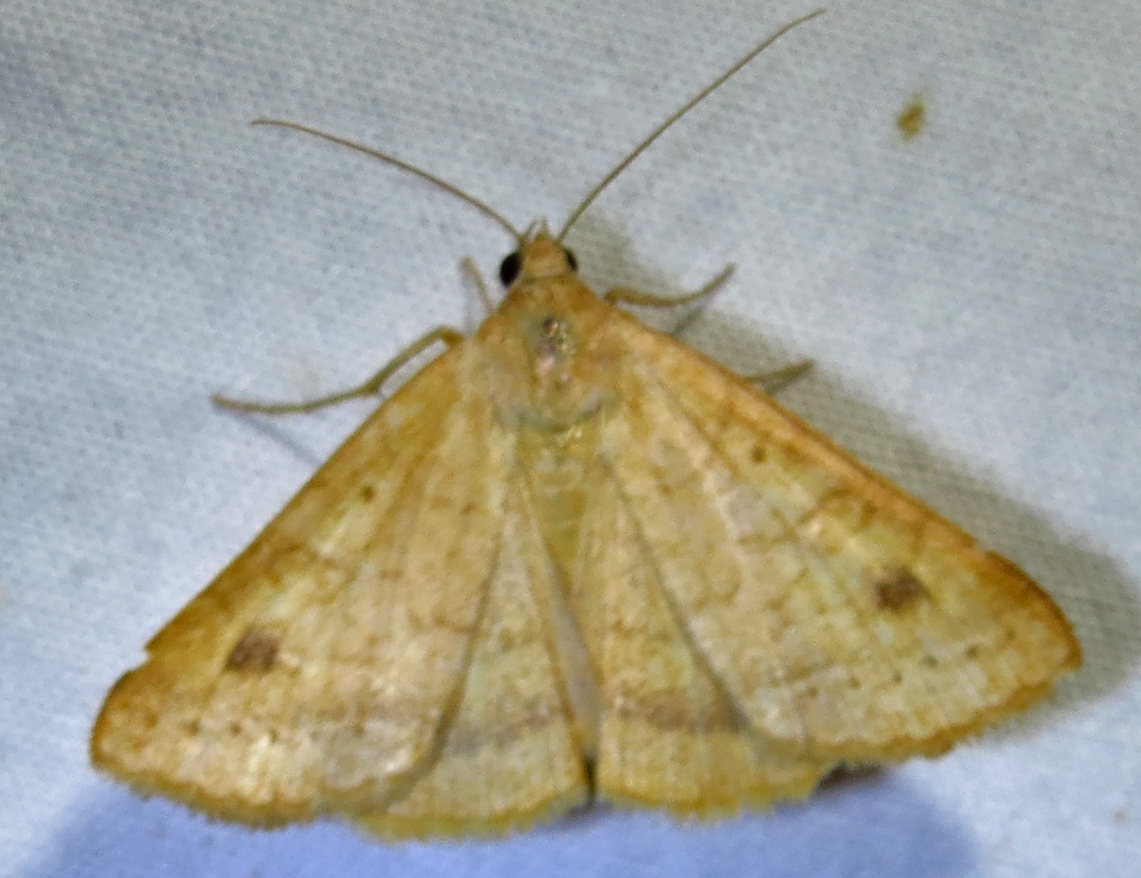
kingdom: Animalia
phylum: Arthropoda
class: Insecta
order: Lepidoptera
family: Erebidae
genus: Caenurgia
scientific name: Caenurgia chloropha
